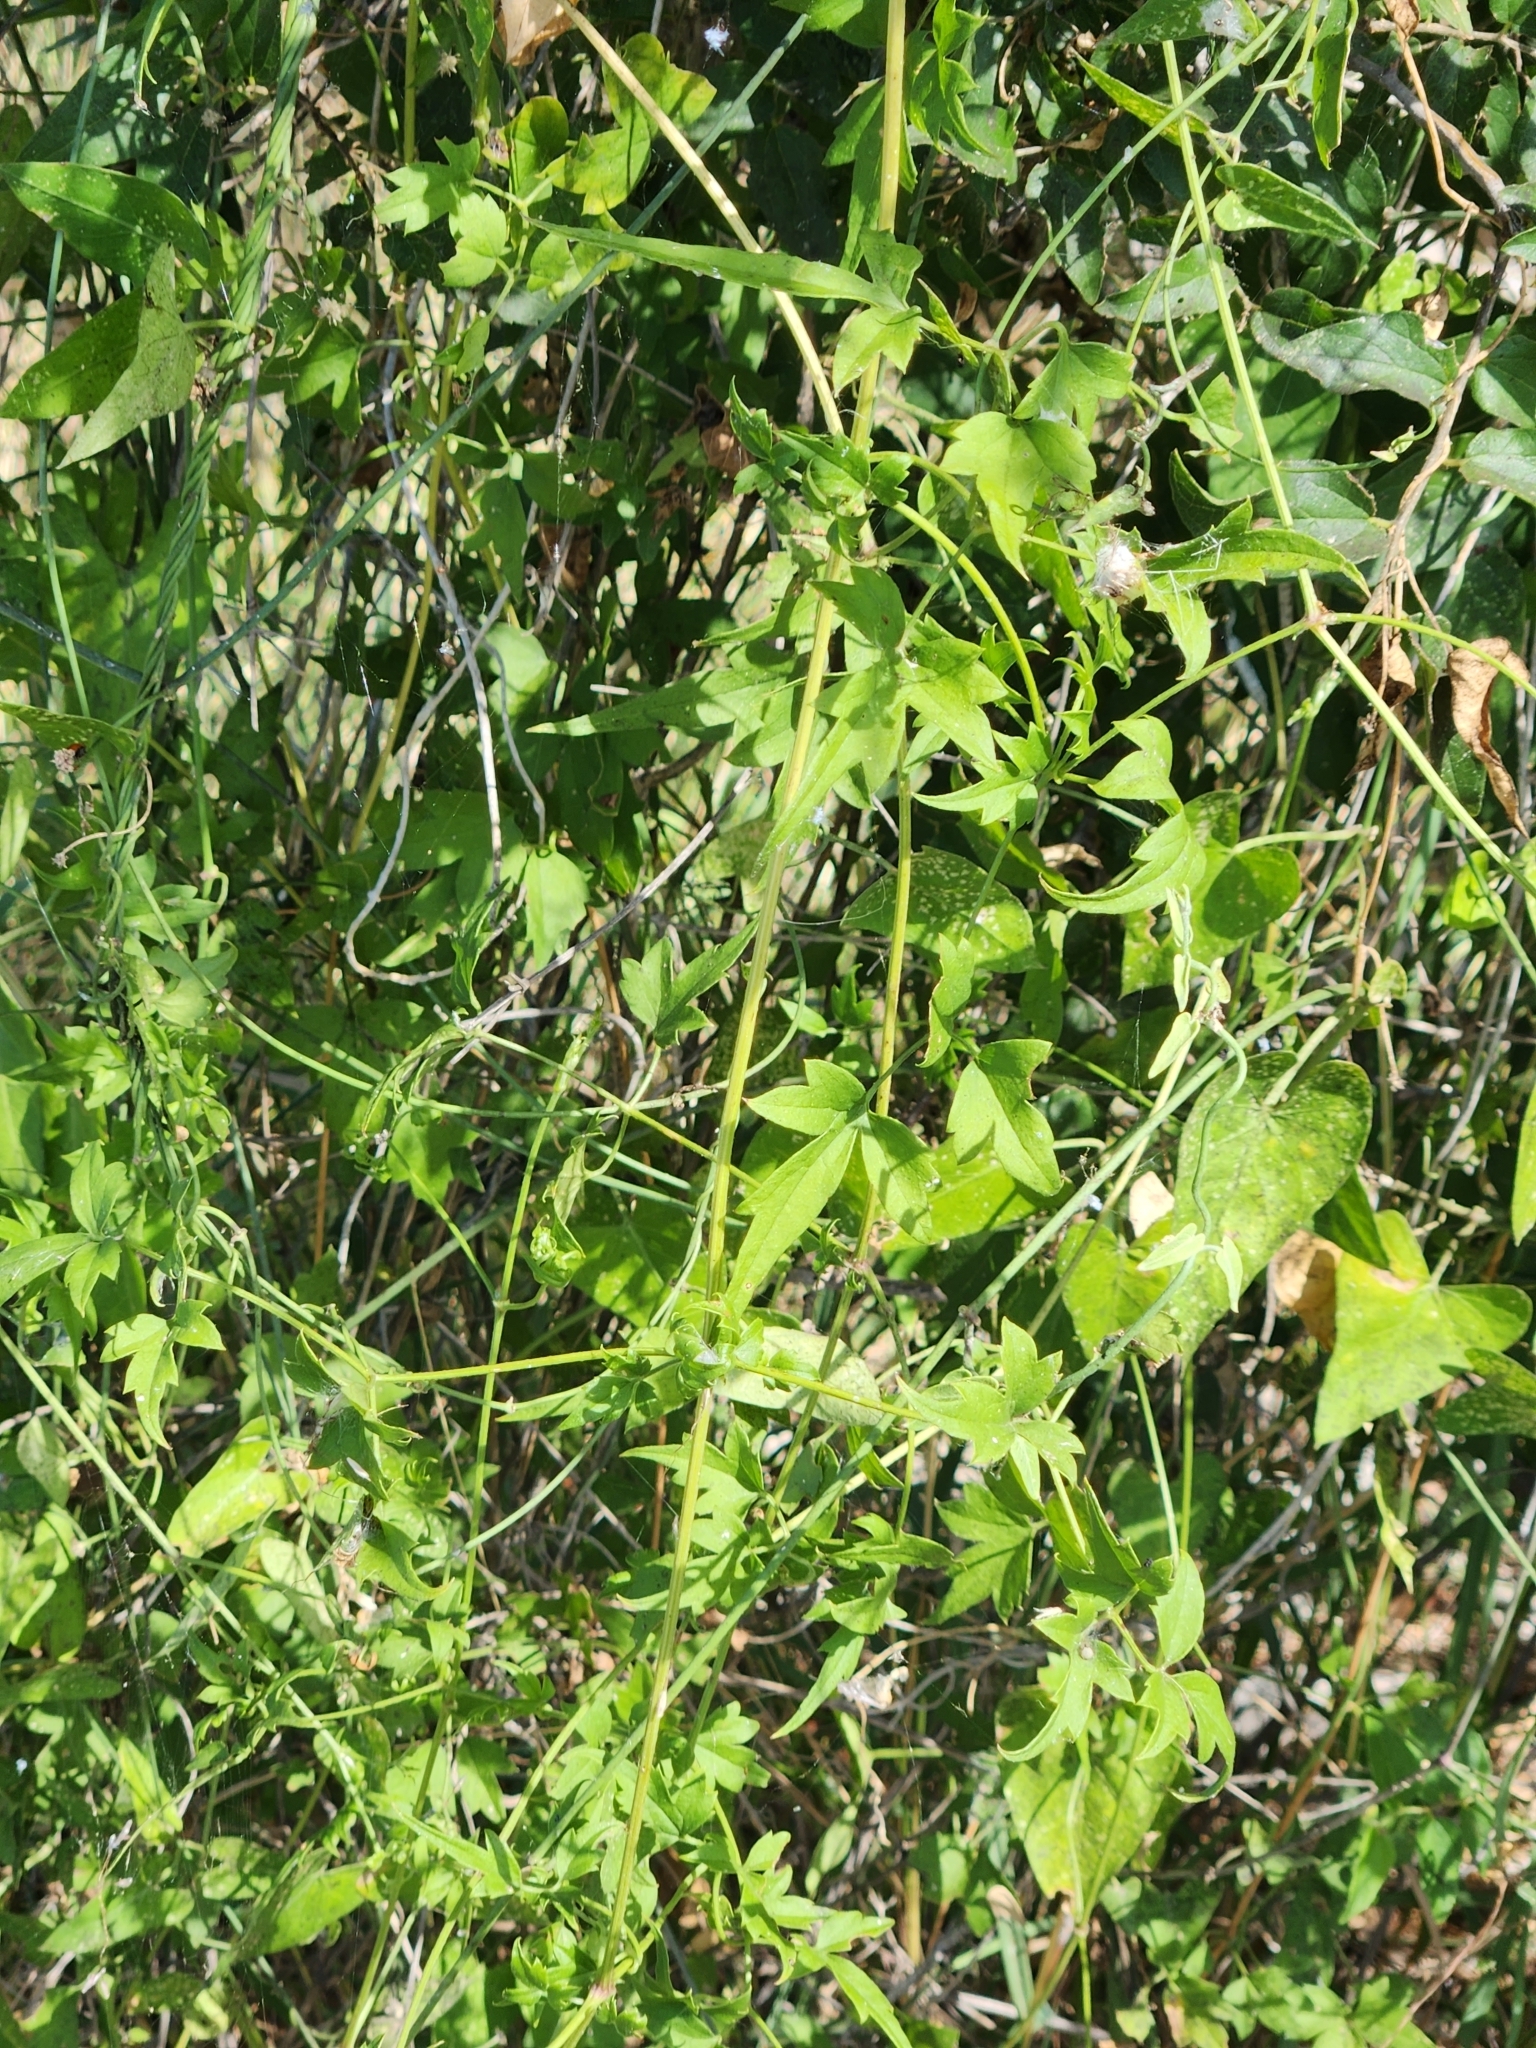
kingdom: Plantae
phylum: Tracheophyta
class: Magnoliopsida
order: Ranunculales
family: Ranunculaceae
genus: Clematis
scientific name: Clematis drummondii
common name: Texas virgin's bower
